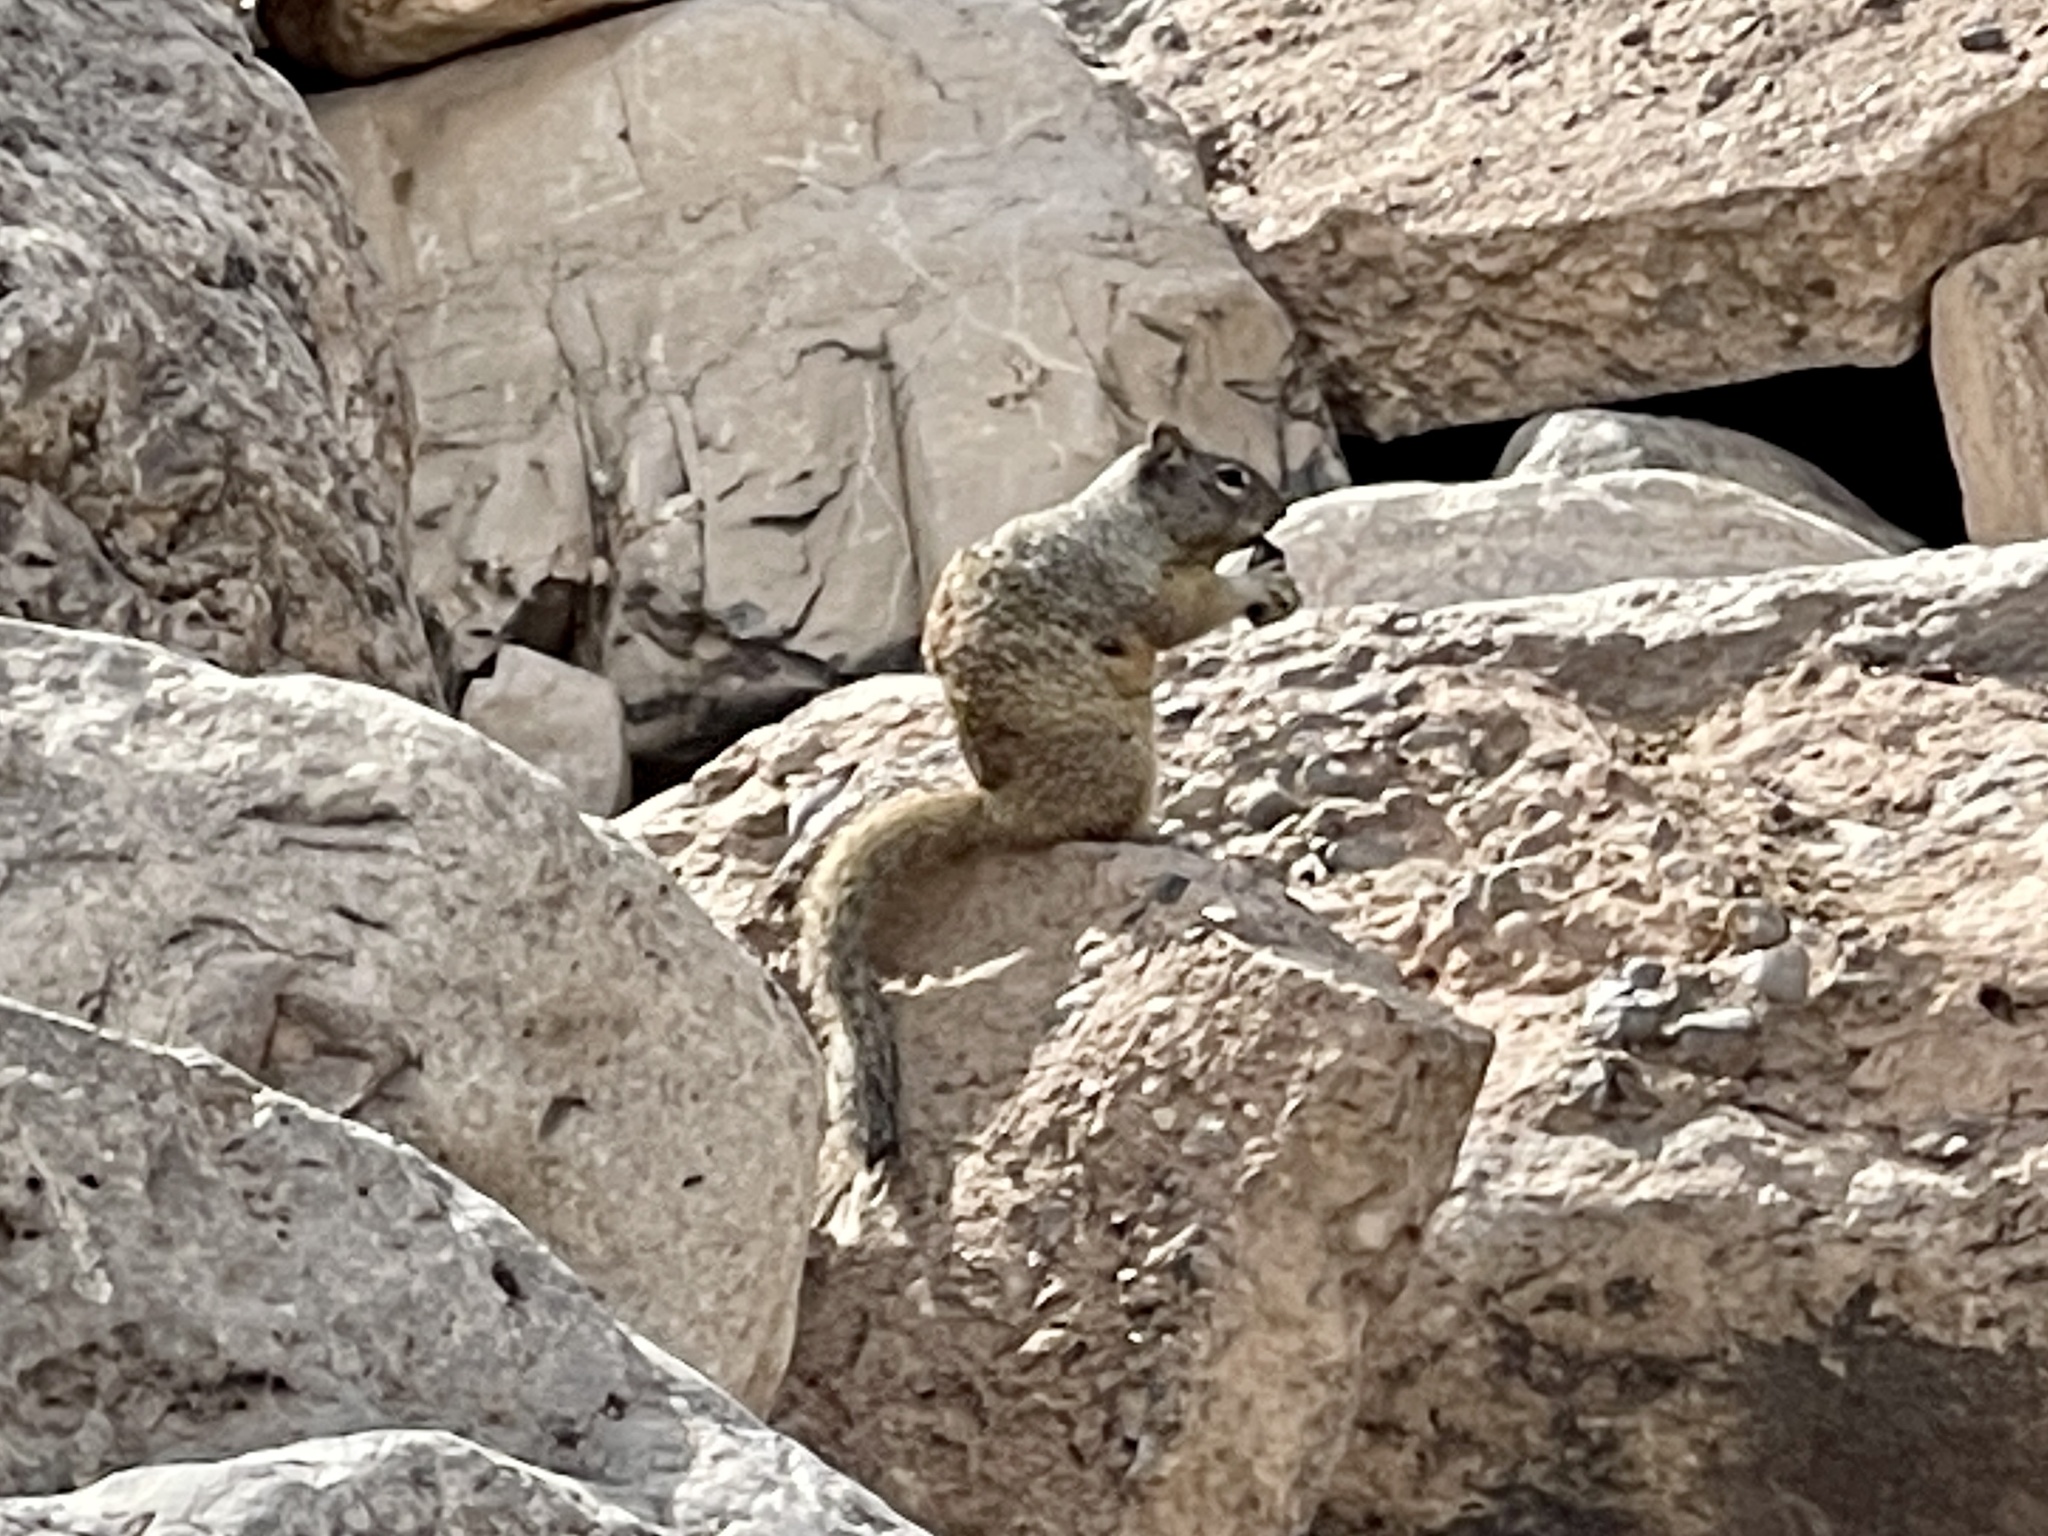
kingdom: Animalia
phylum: Chordata
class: Mammalia
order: Rodentia
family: Sciuridae
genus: Otospermophilus
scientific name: Otospermophilus variegatus
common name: Rock squirrel
